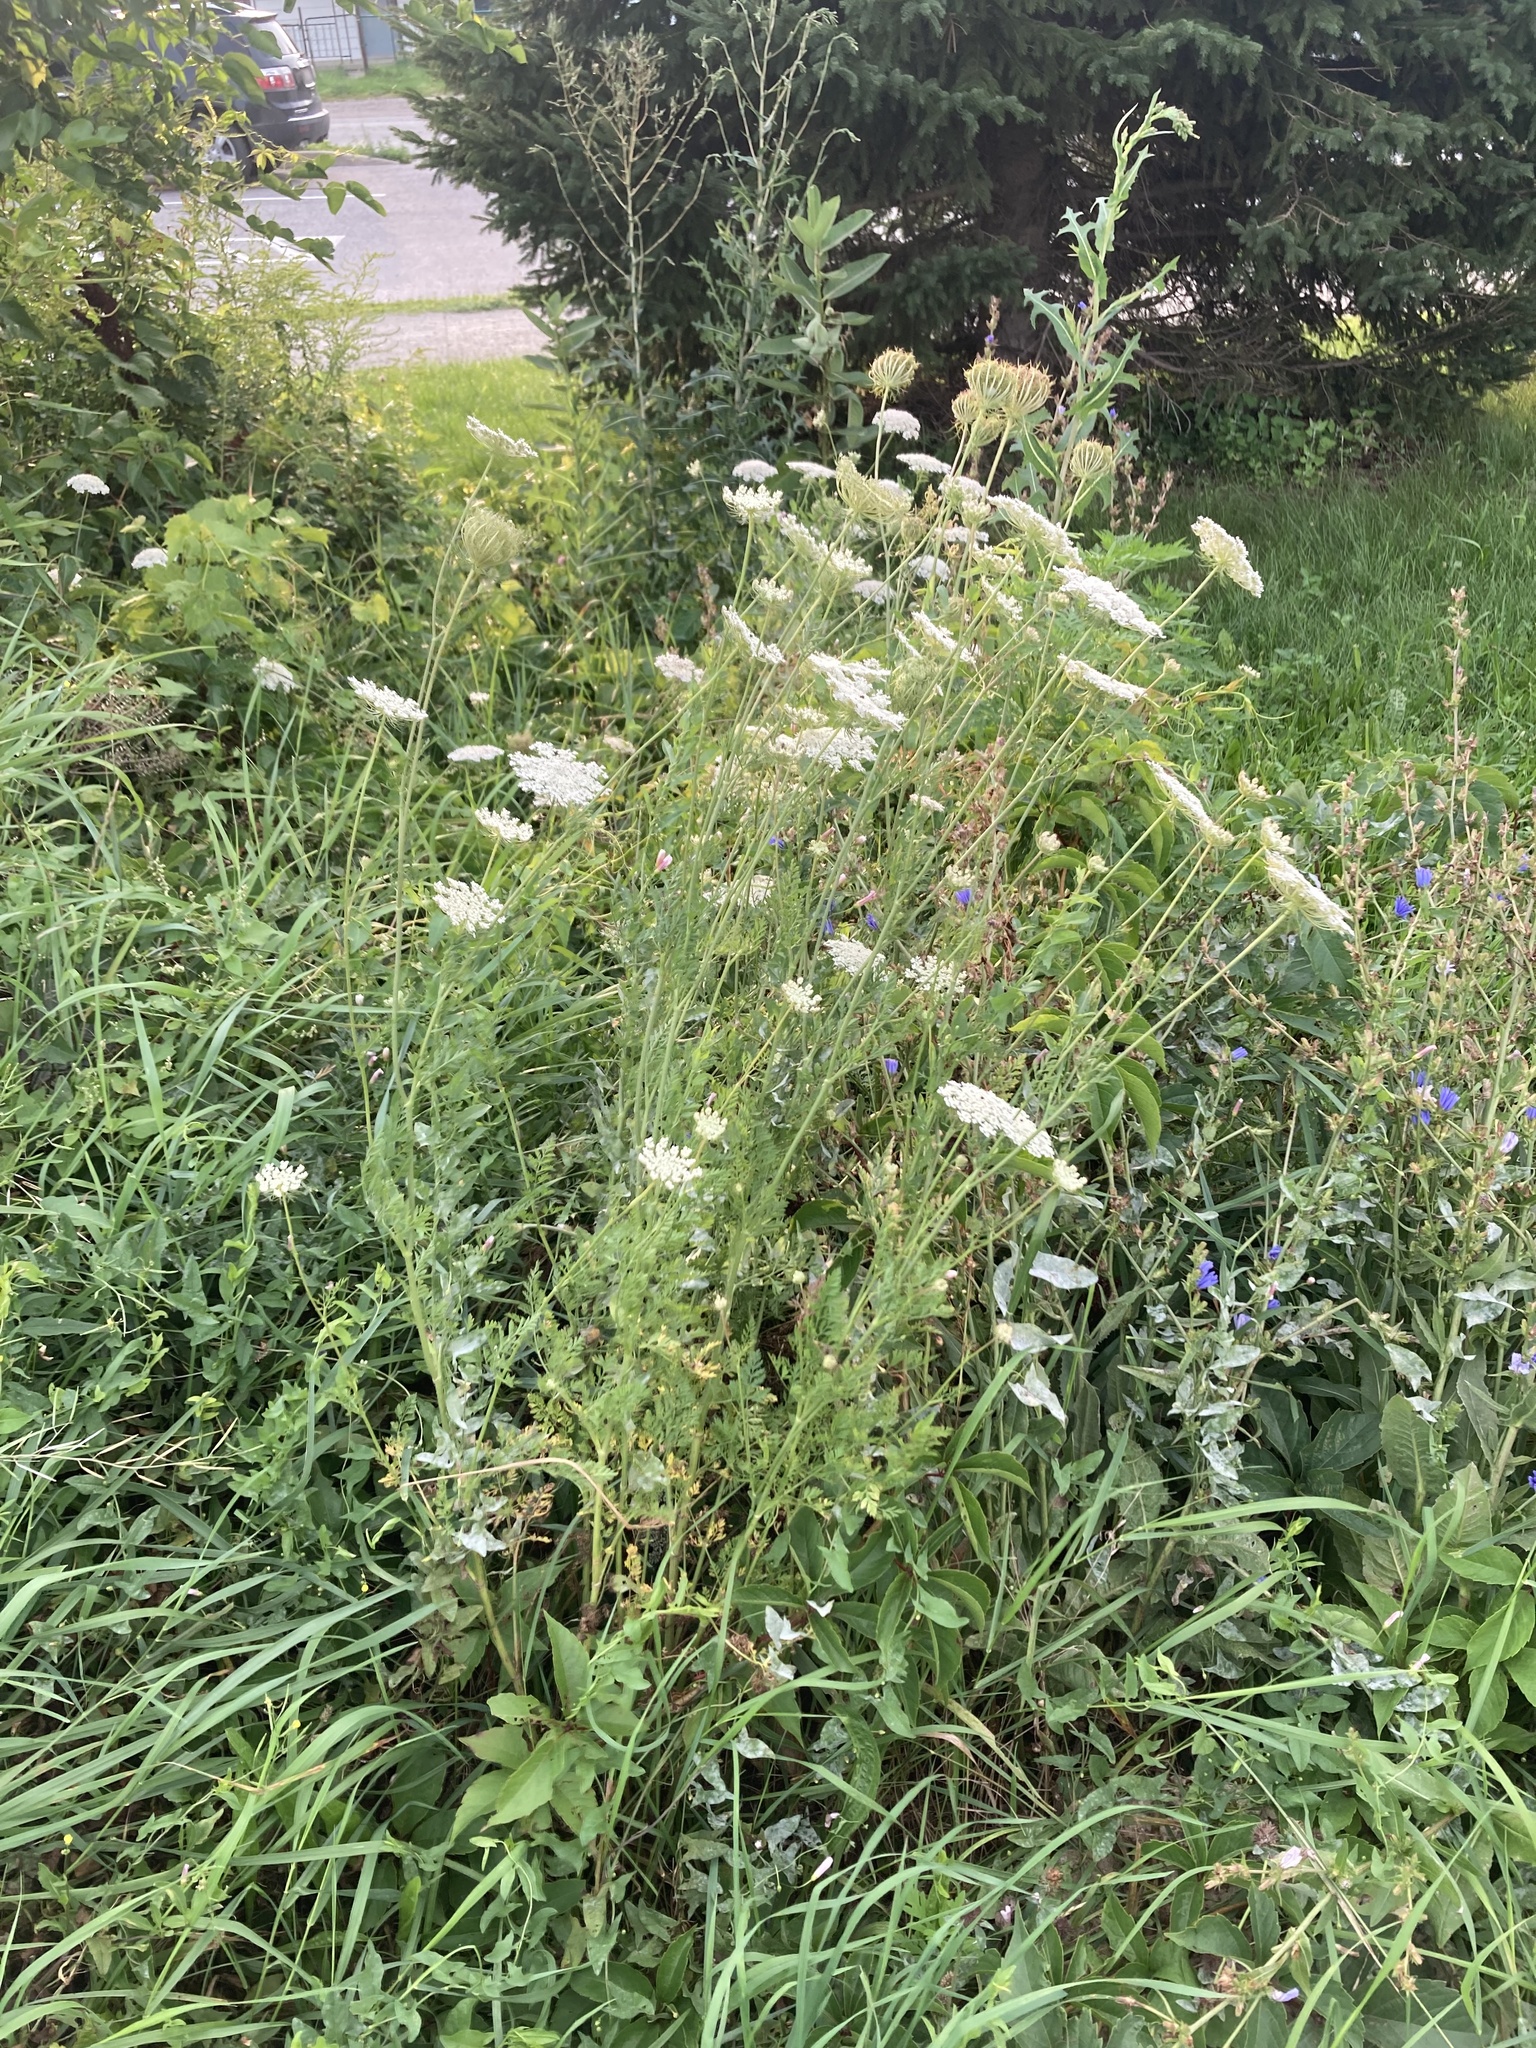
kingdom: Plantae
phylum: Tracheophyta
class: Magnoliopsida
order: Apiales
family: Apiaceae
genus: Daucus
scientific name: Daucus carota
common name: Wild carrot
